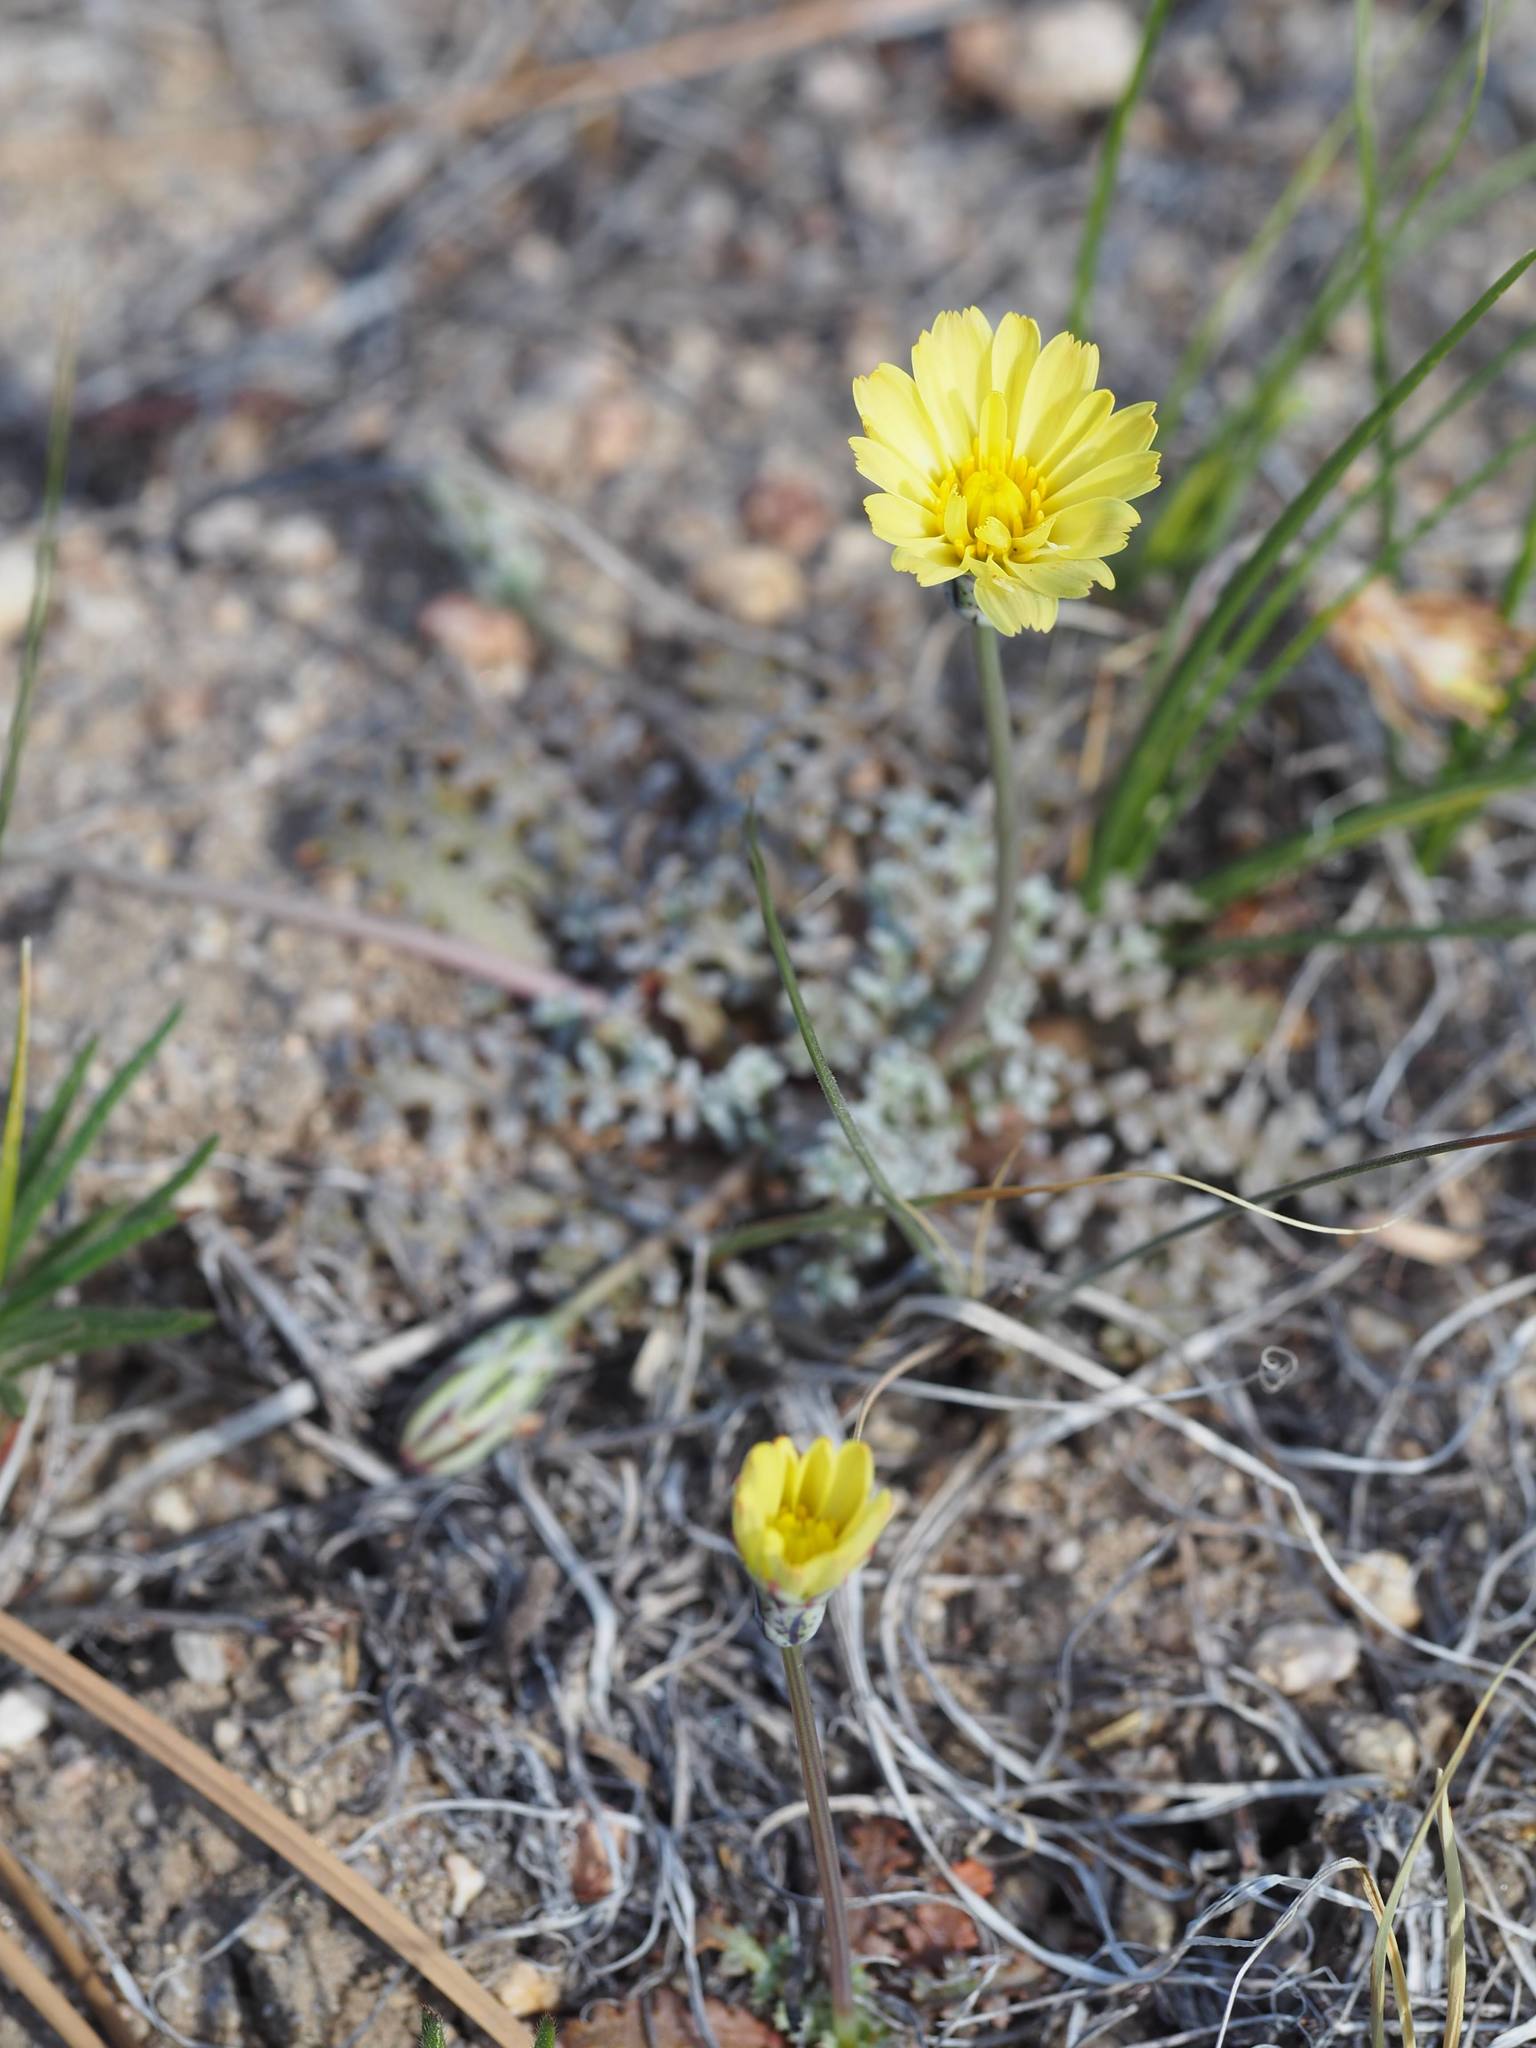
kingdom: Plantae
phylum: Tracheophyta
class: Magnoliopsida
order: Asterales
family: Asteraceae
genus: Anisocoma
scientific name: Anisocoma acaulis
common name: Scalebud
